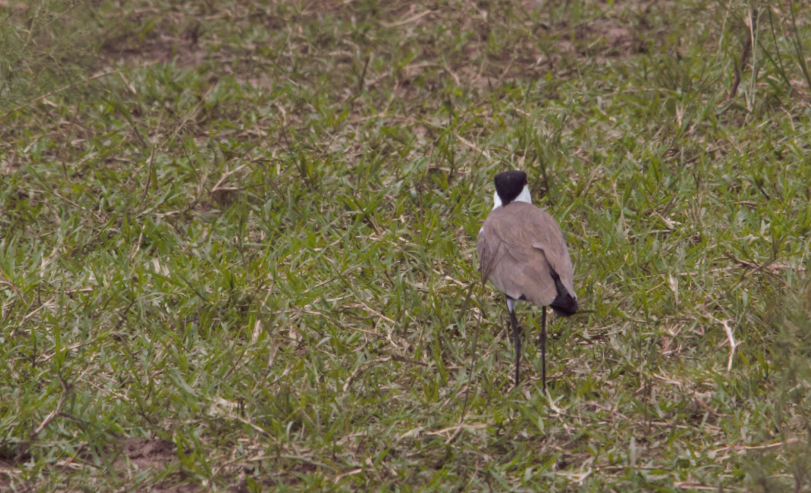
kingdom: Animalia
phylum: Chordata
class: Aves
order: Charadriiformes
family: Charadriidae
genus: Vanellus
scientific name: Vanellus spinosus
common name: Spur-winged lapwing
